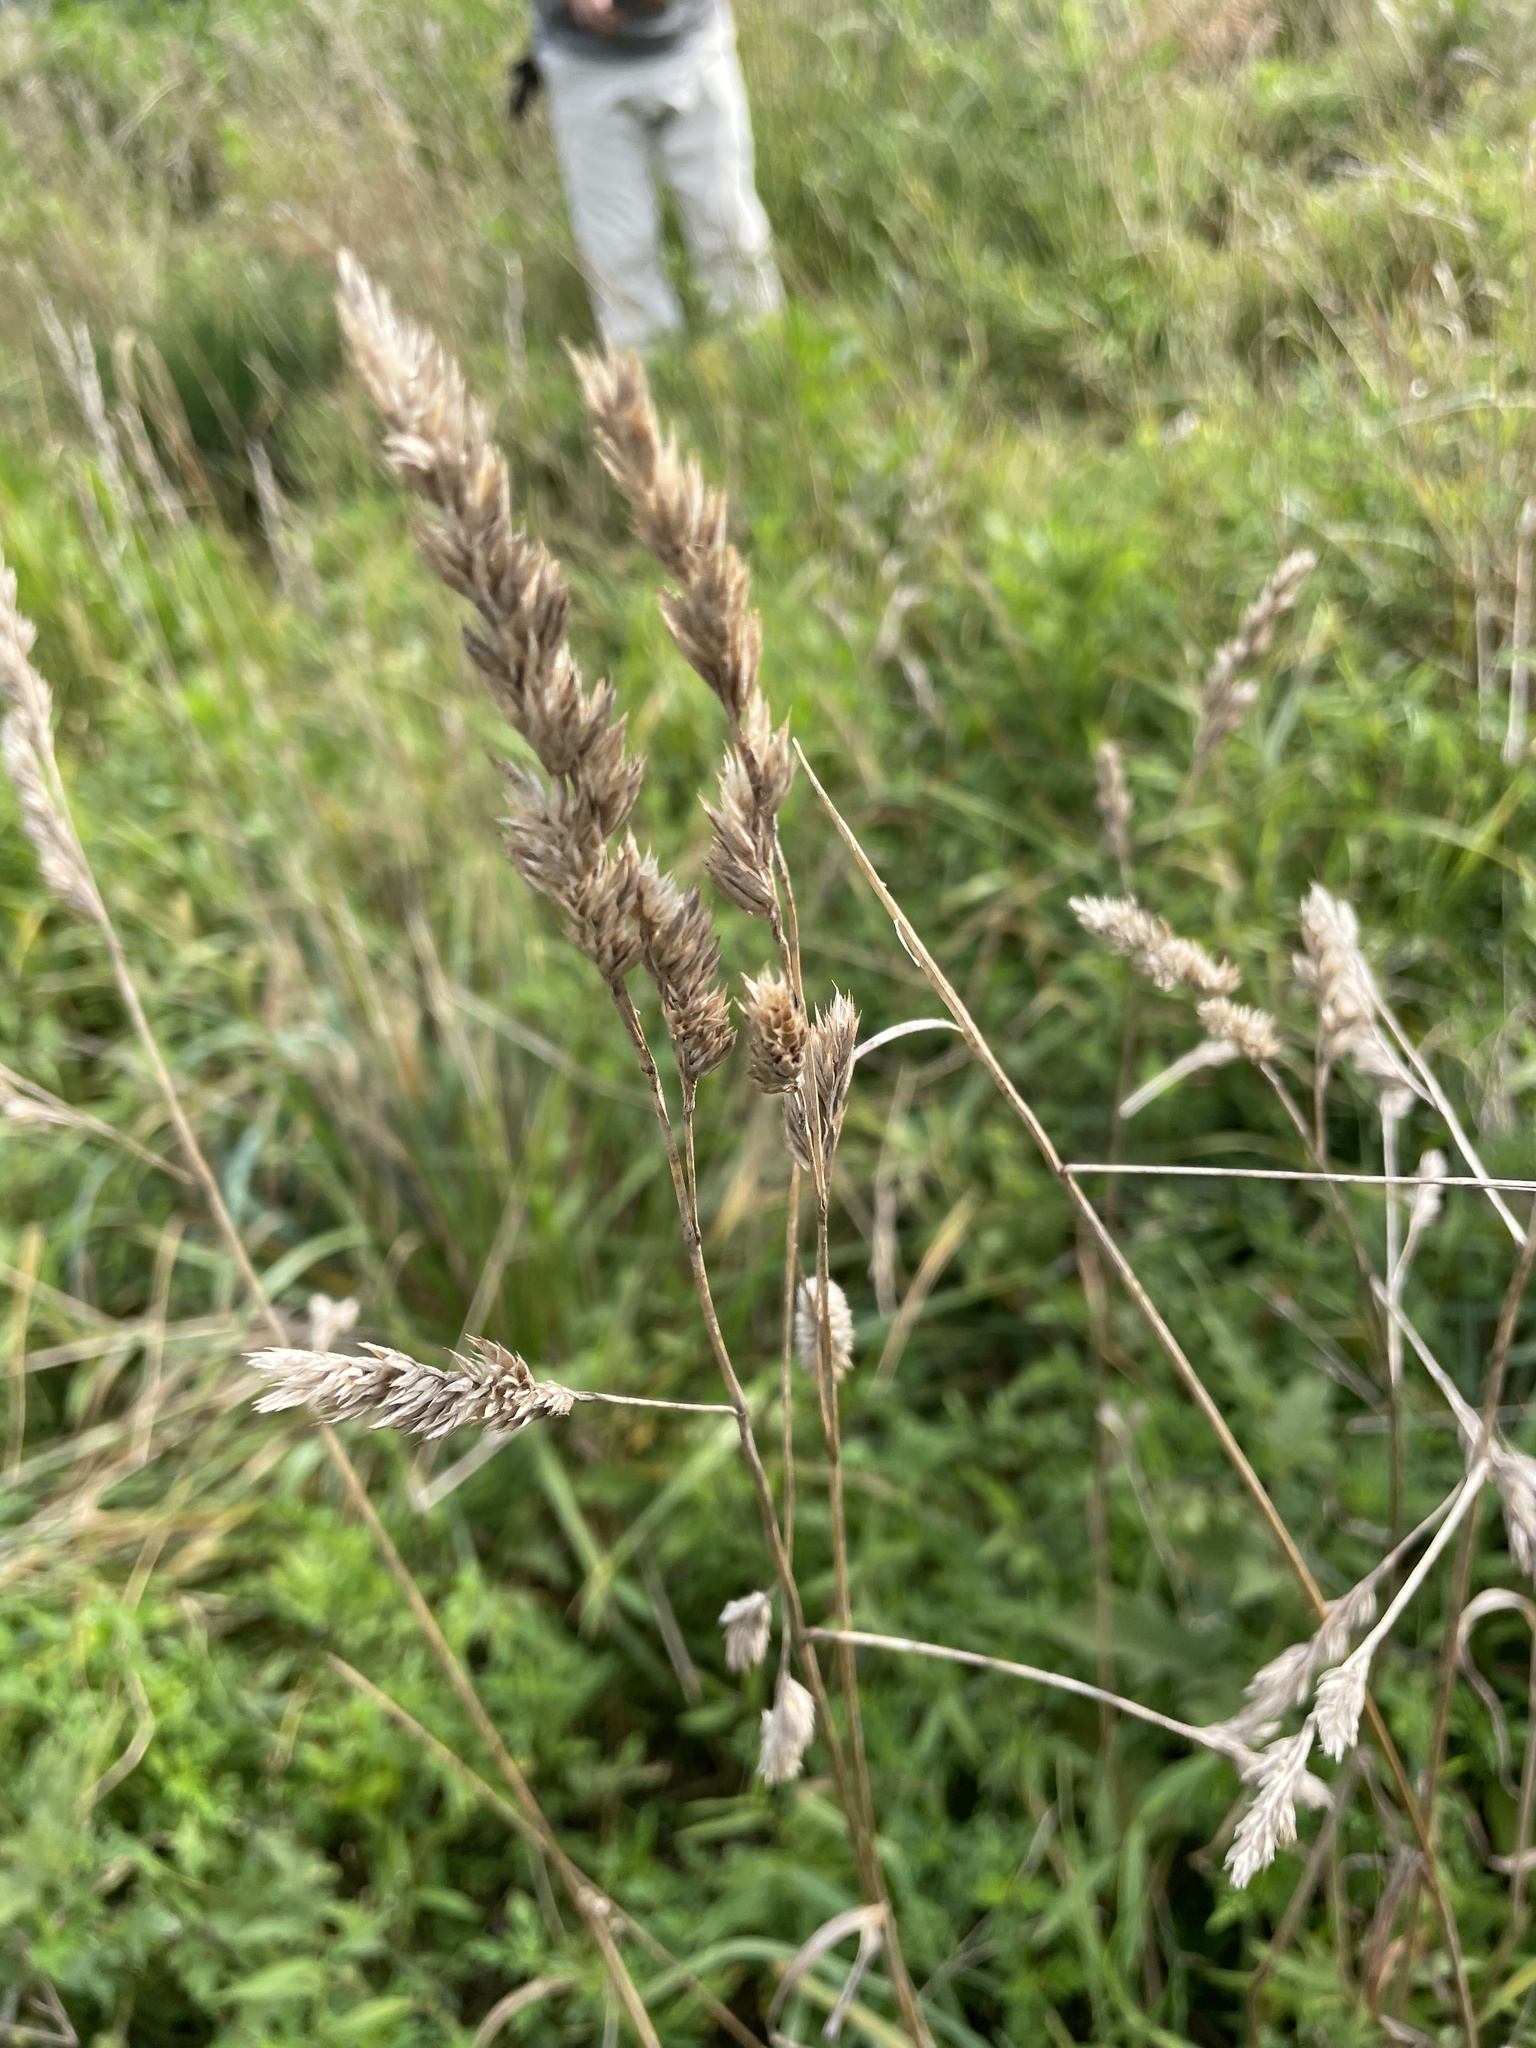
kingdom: Plantae
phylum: Tracheophyta
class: Liliopsida
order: Poales
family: Poaceae
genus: Dactylis
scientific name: Dactylis glomerata
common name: Orchardgrass
